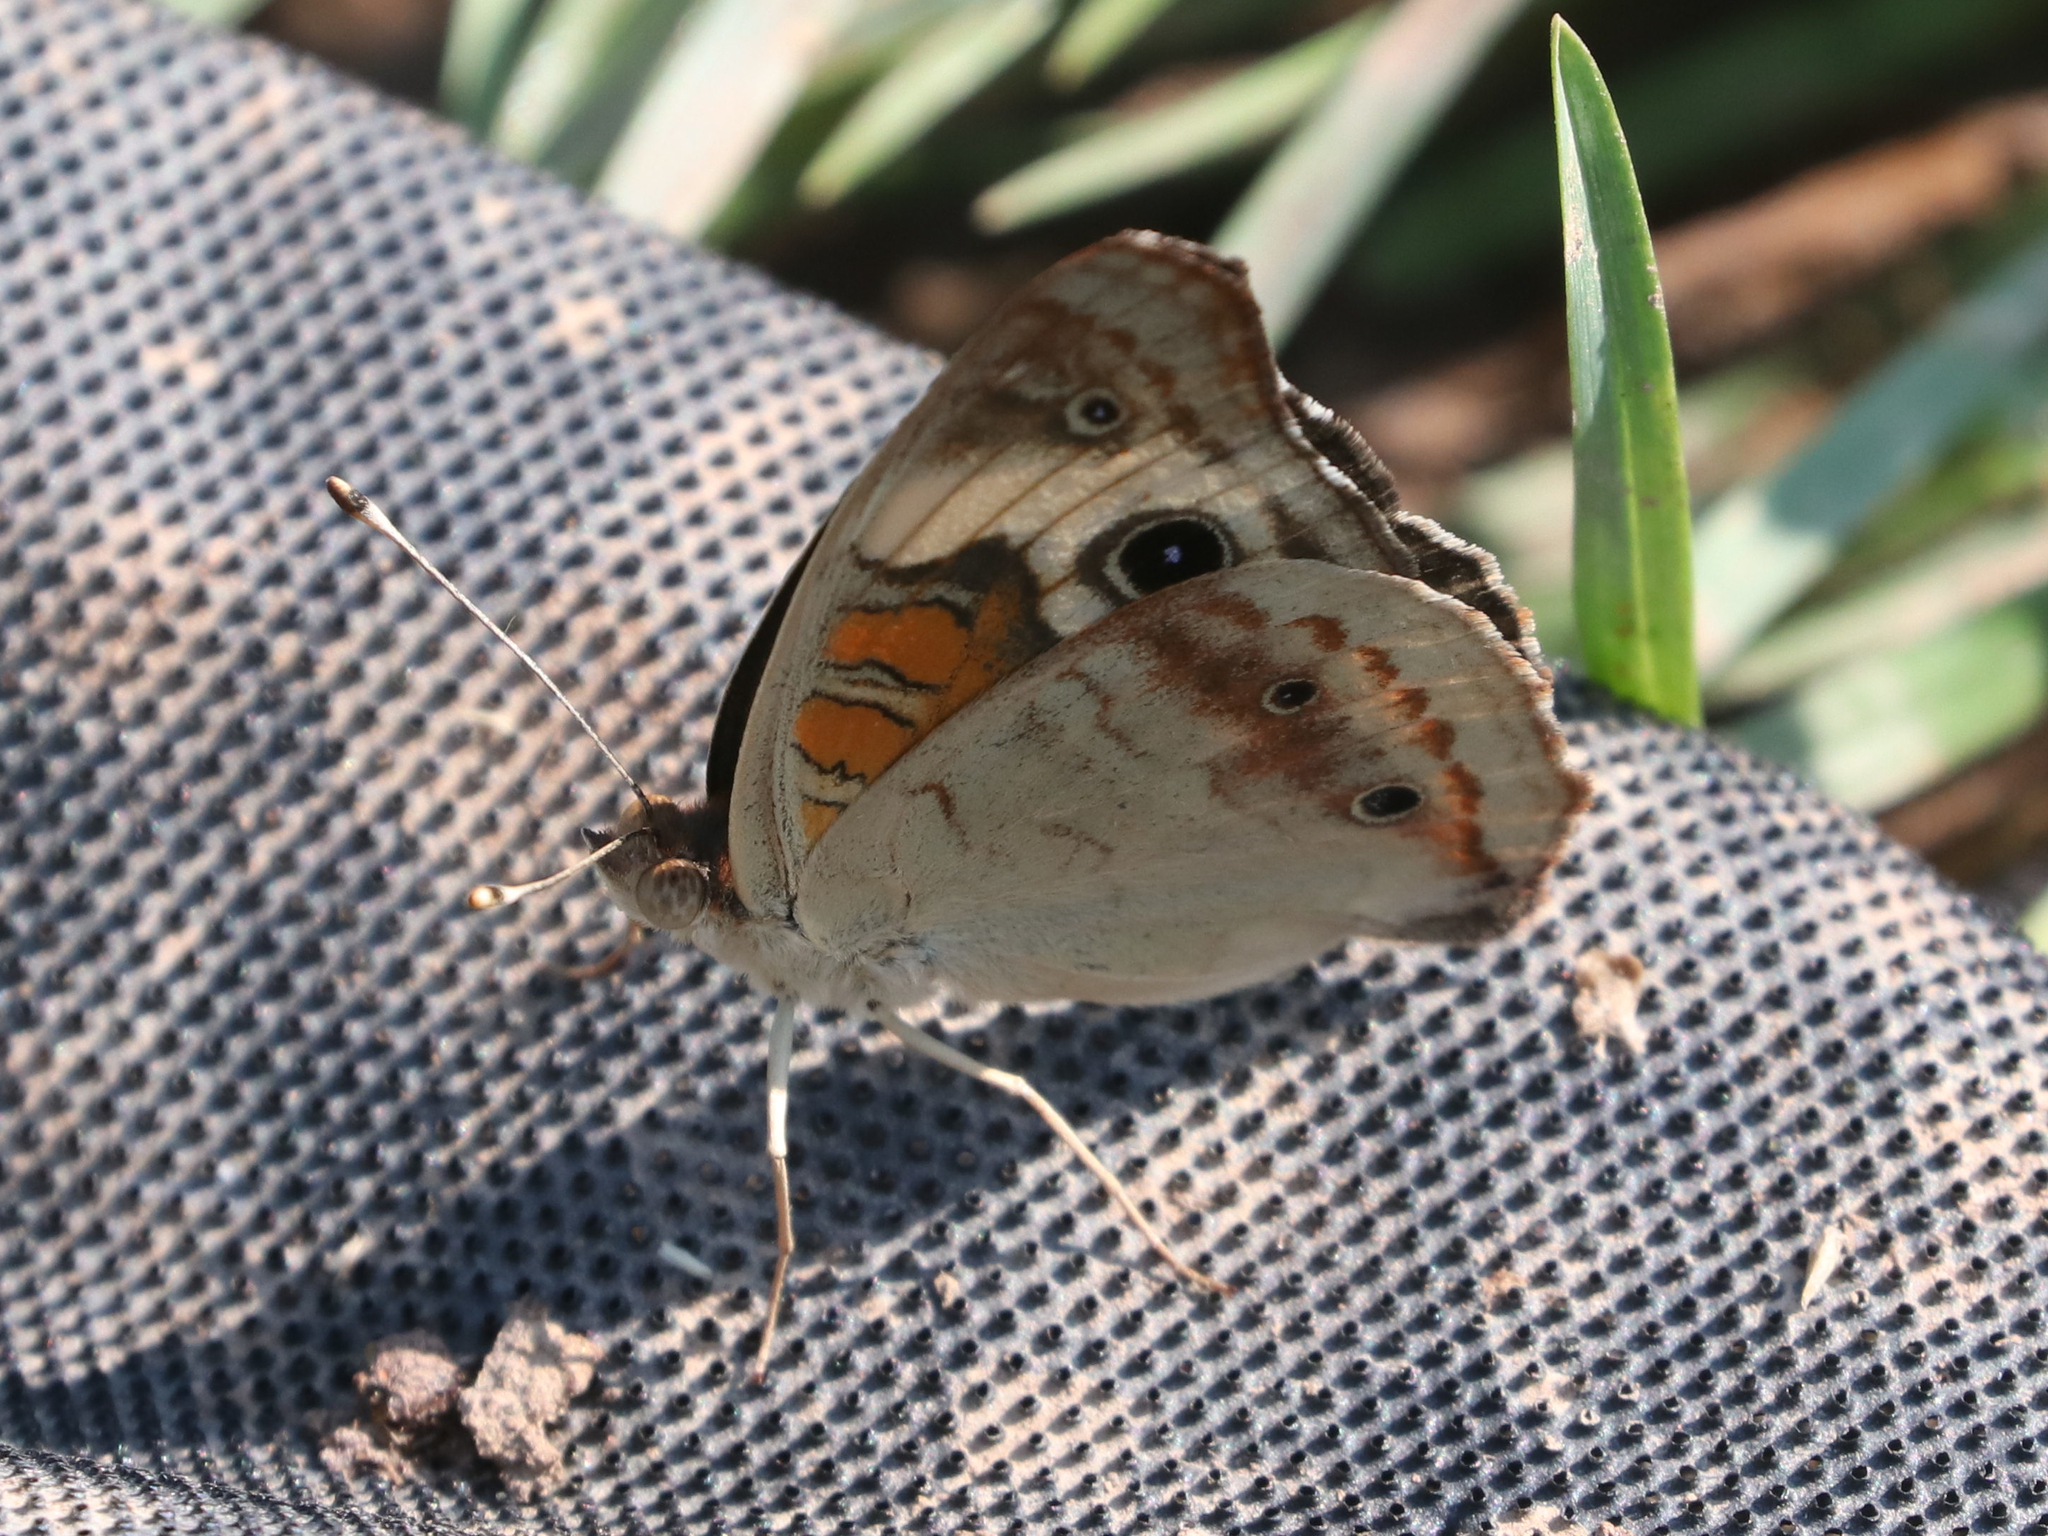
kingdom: Animalia
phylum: Arthropoda
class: Insecta
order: Lepidoptera
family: Nymphalidae
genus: Junonia
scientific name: Junonia coenia
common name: Common buckeye
